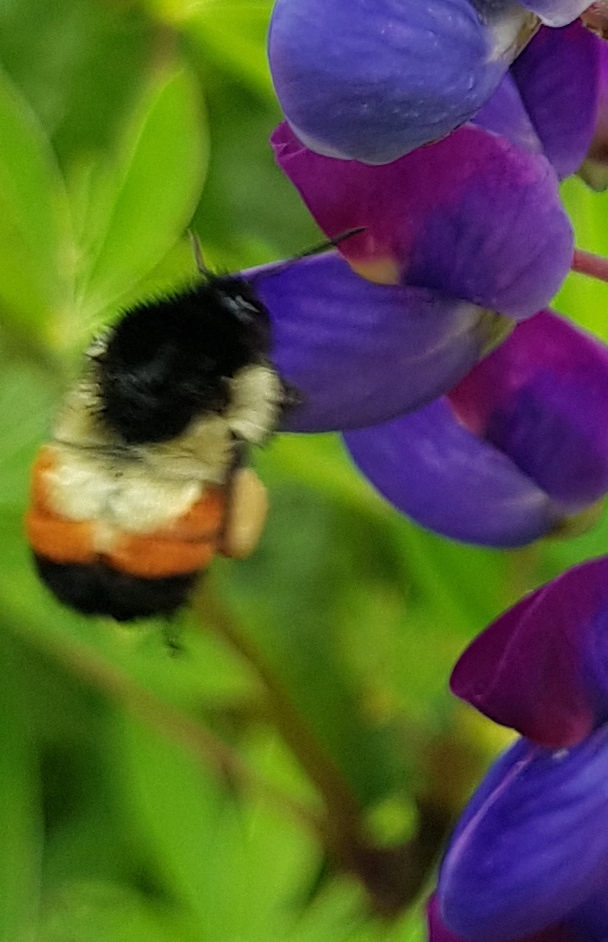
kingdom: Animalia
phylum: Arthropoda
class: Insecta
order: Hymenoptera
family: Apidae
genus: Bombus
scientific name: Bombus ephippiatus
